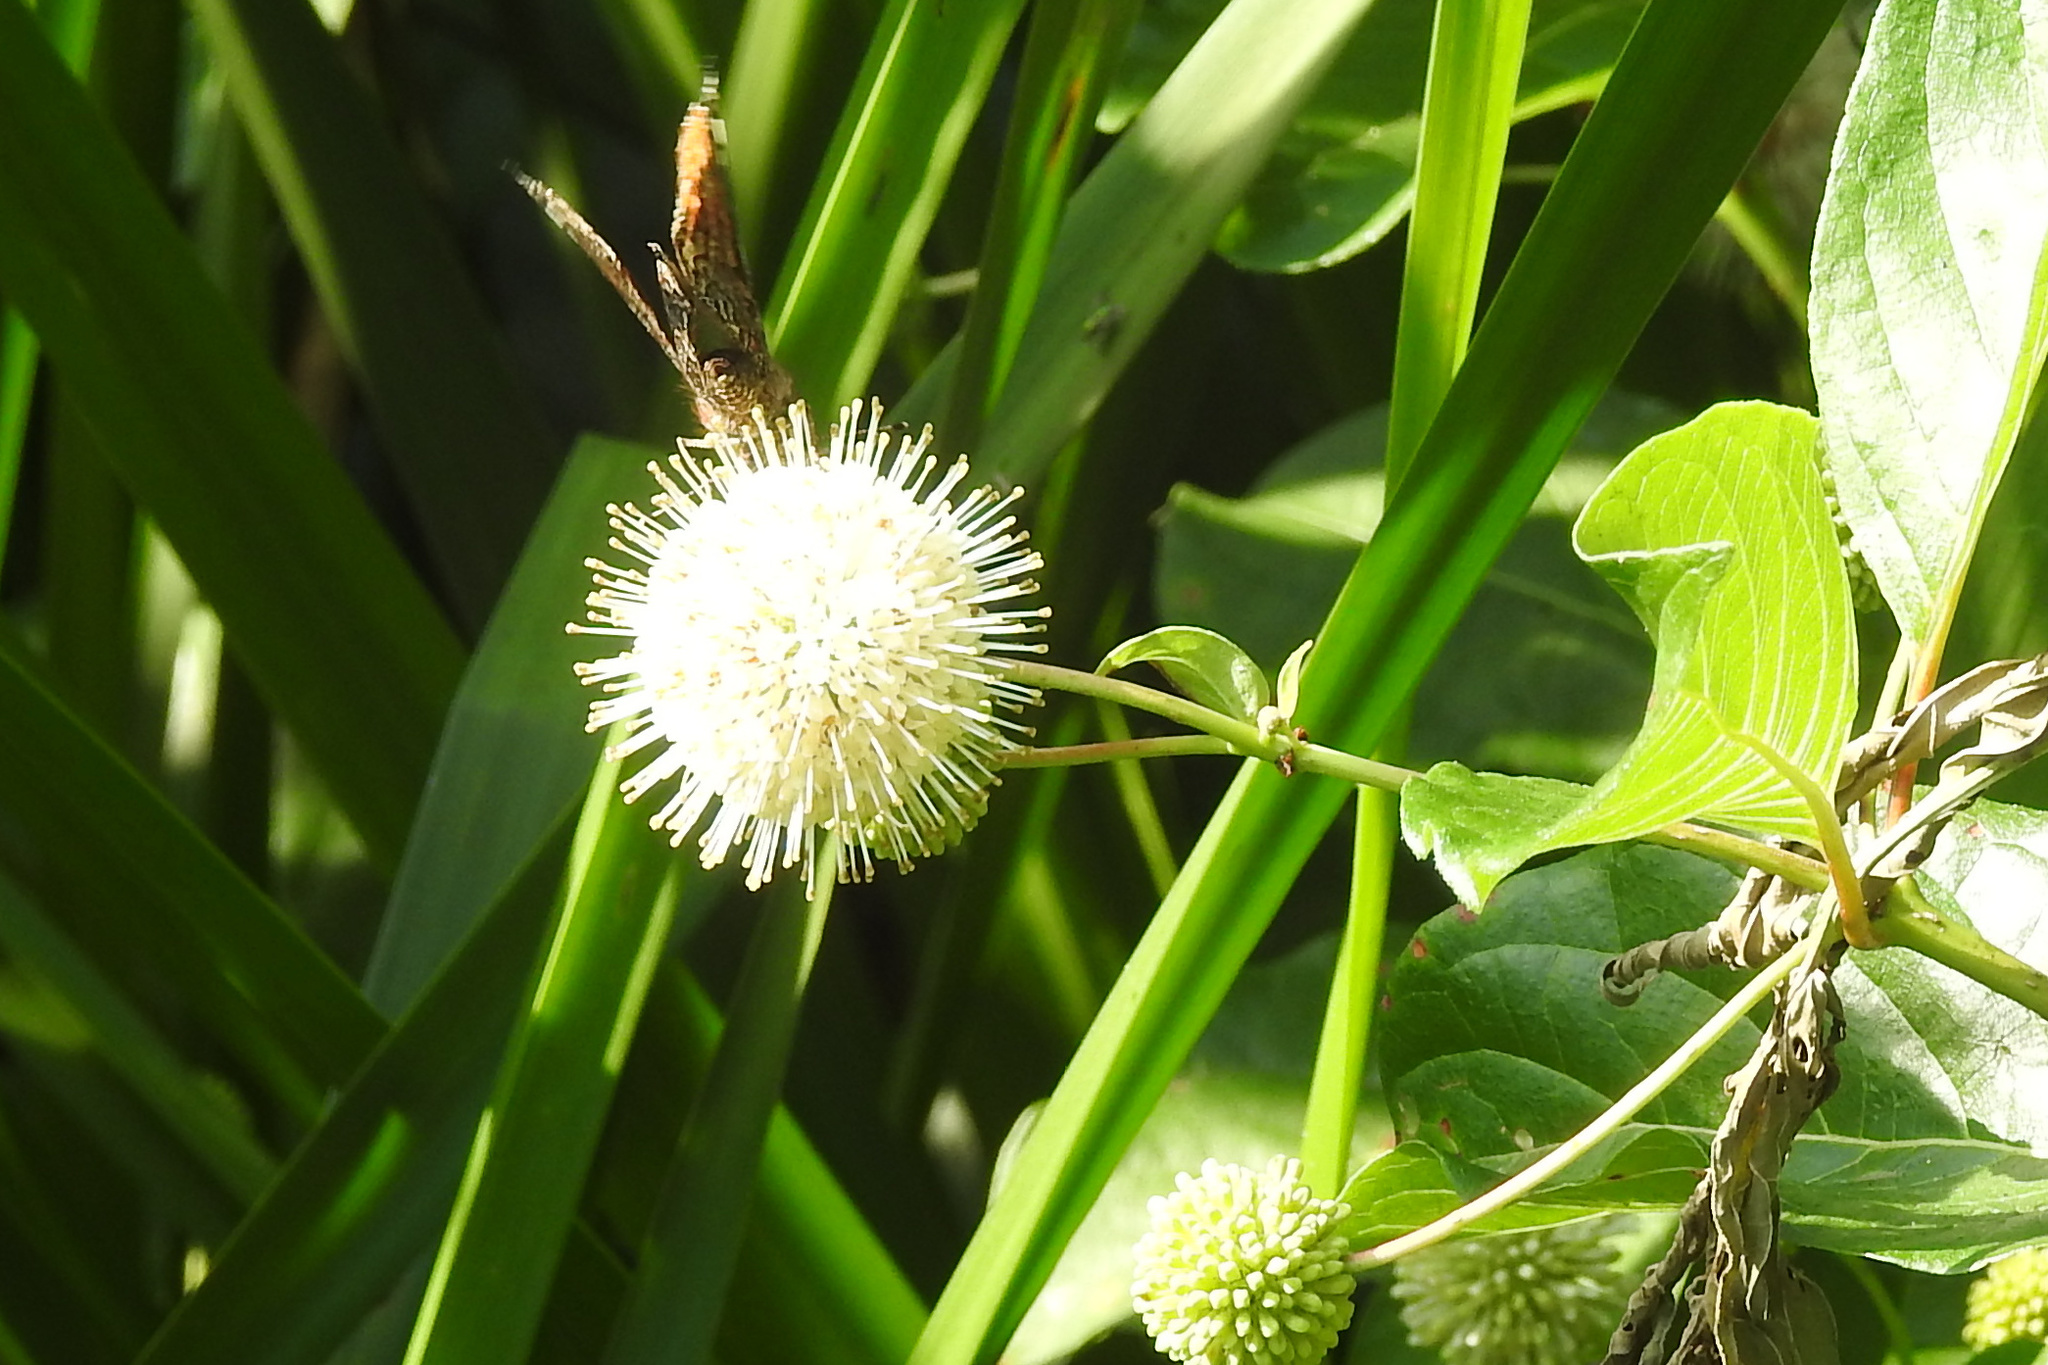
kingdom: Plantae
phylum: Tracheophyta
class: Magnoliopsida
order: Gentianales
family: Rubiaceae
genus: Cephalanthus
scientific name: Cephalanthus occidentalis
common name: Button-willow
